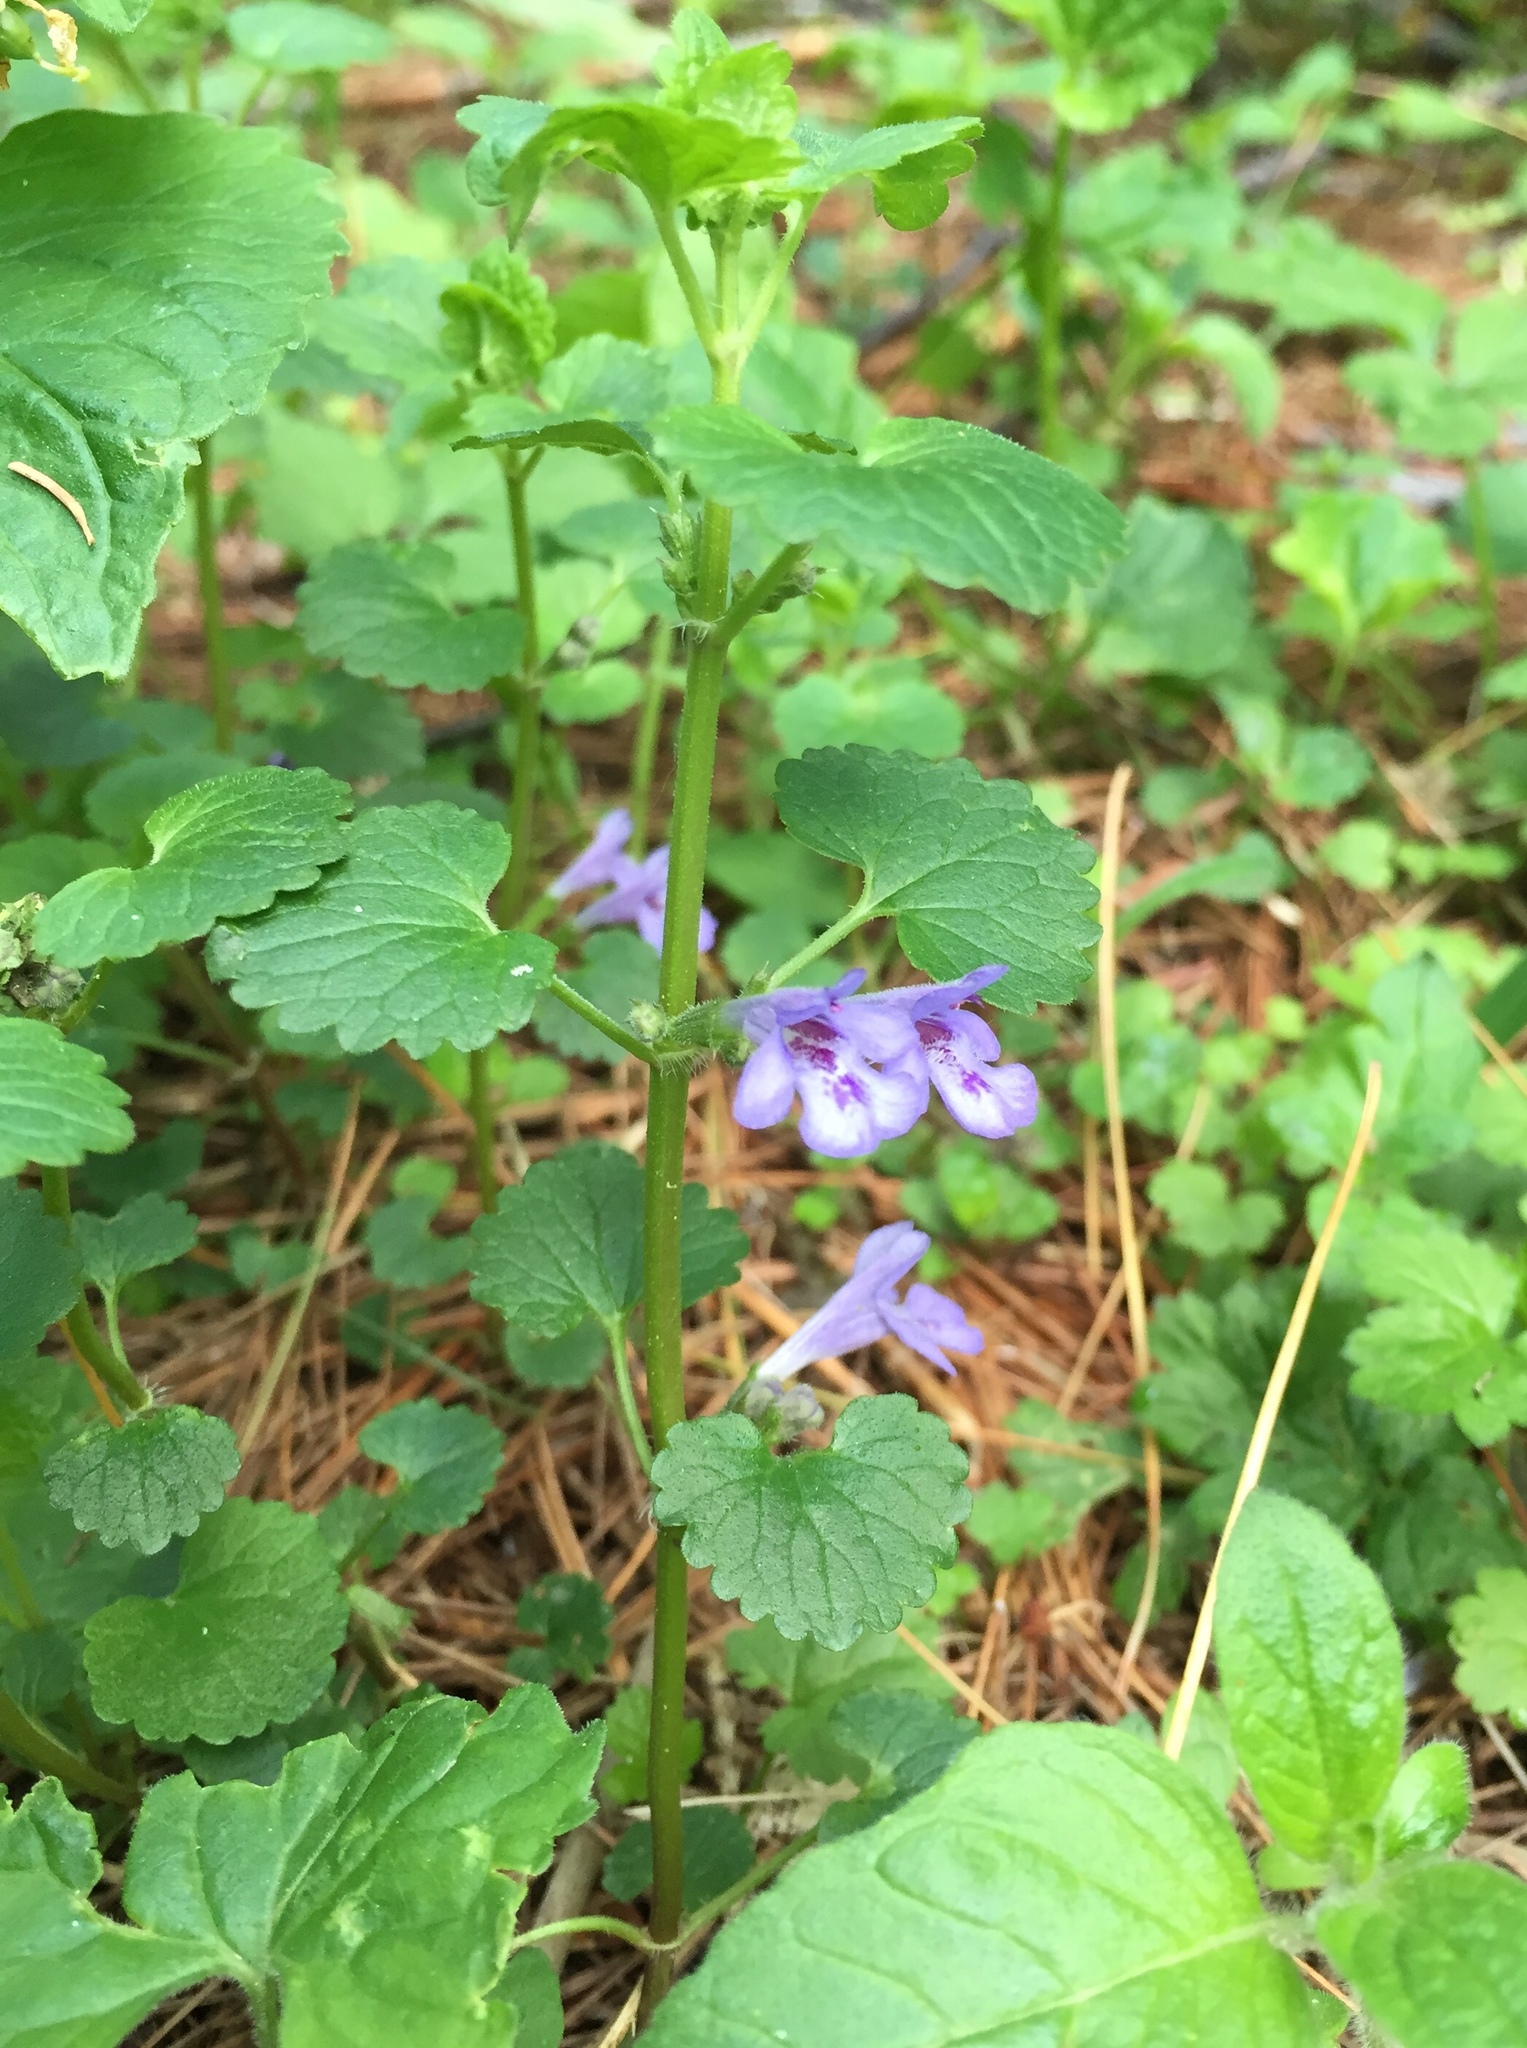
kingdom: Plantae
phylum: Tracheophyta
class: Magnoliopsida
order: Lamiales
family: Lamiaceae
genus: Glechoma
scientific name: Glechoma hederacea
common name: Ground ivy
